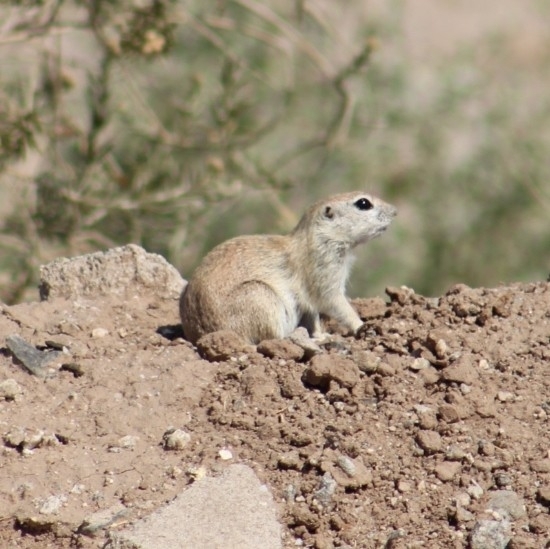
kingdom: Animalia
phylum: Chordata
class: Mammalia
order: Rodentia
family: Sciuridae
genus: Xerospermophilus
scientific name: Xerospermophilus tereticaudus
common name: Round-tailed ground squirrel
